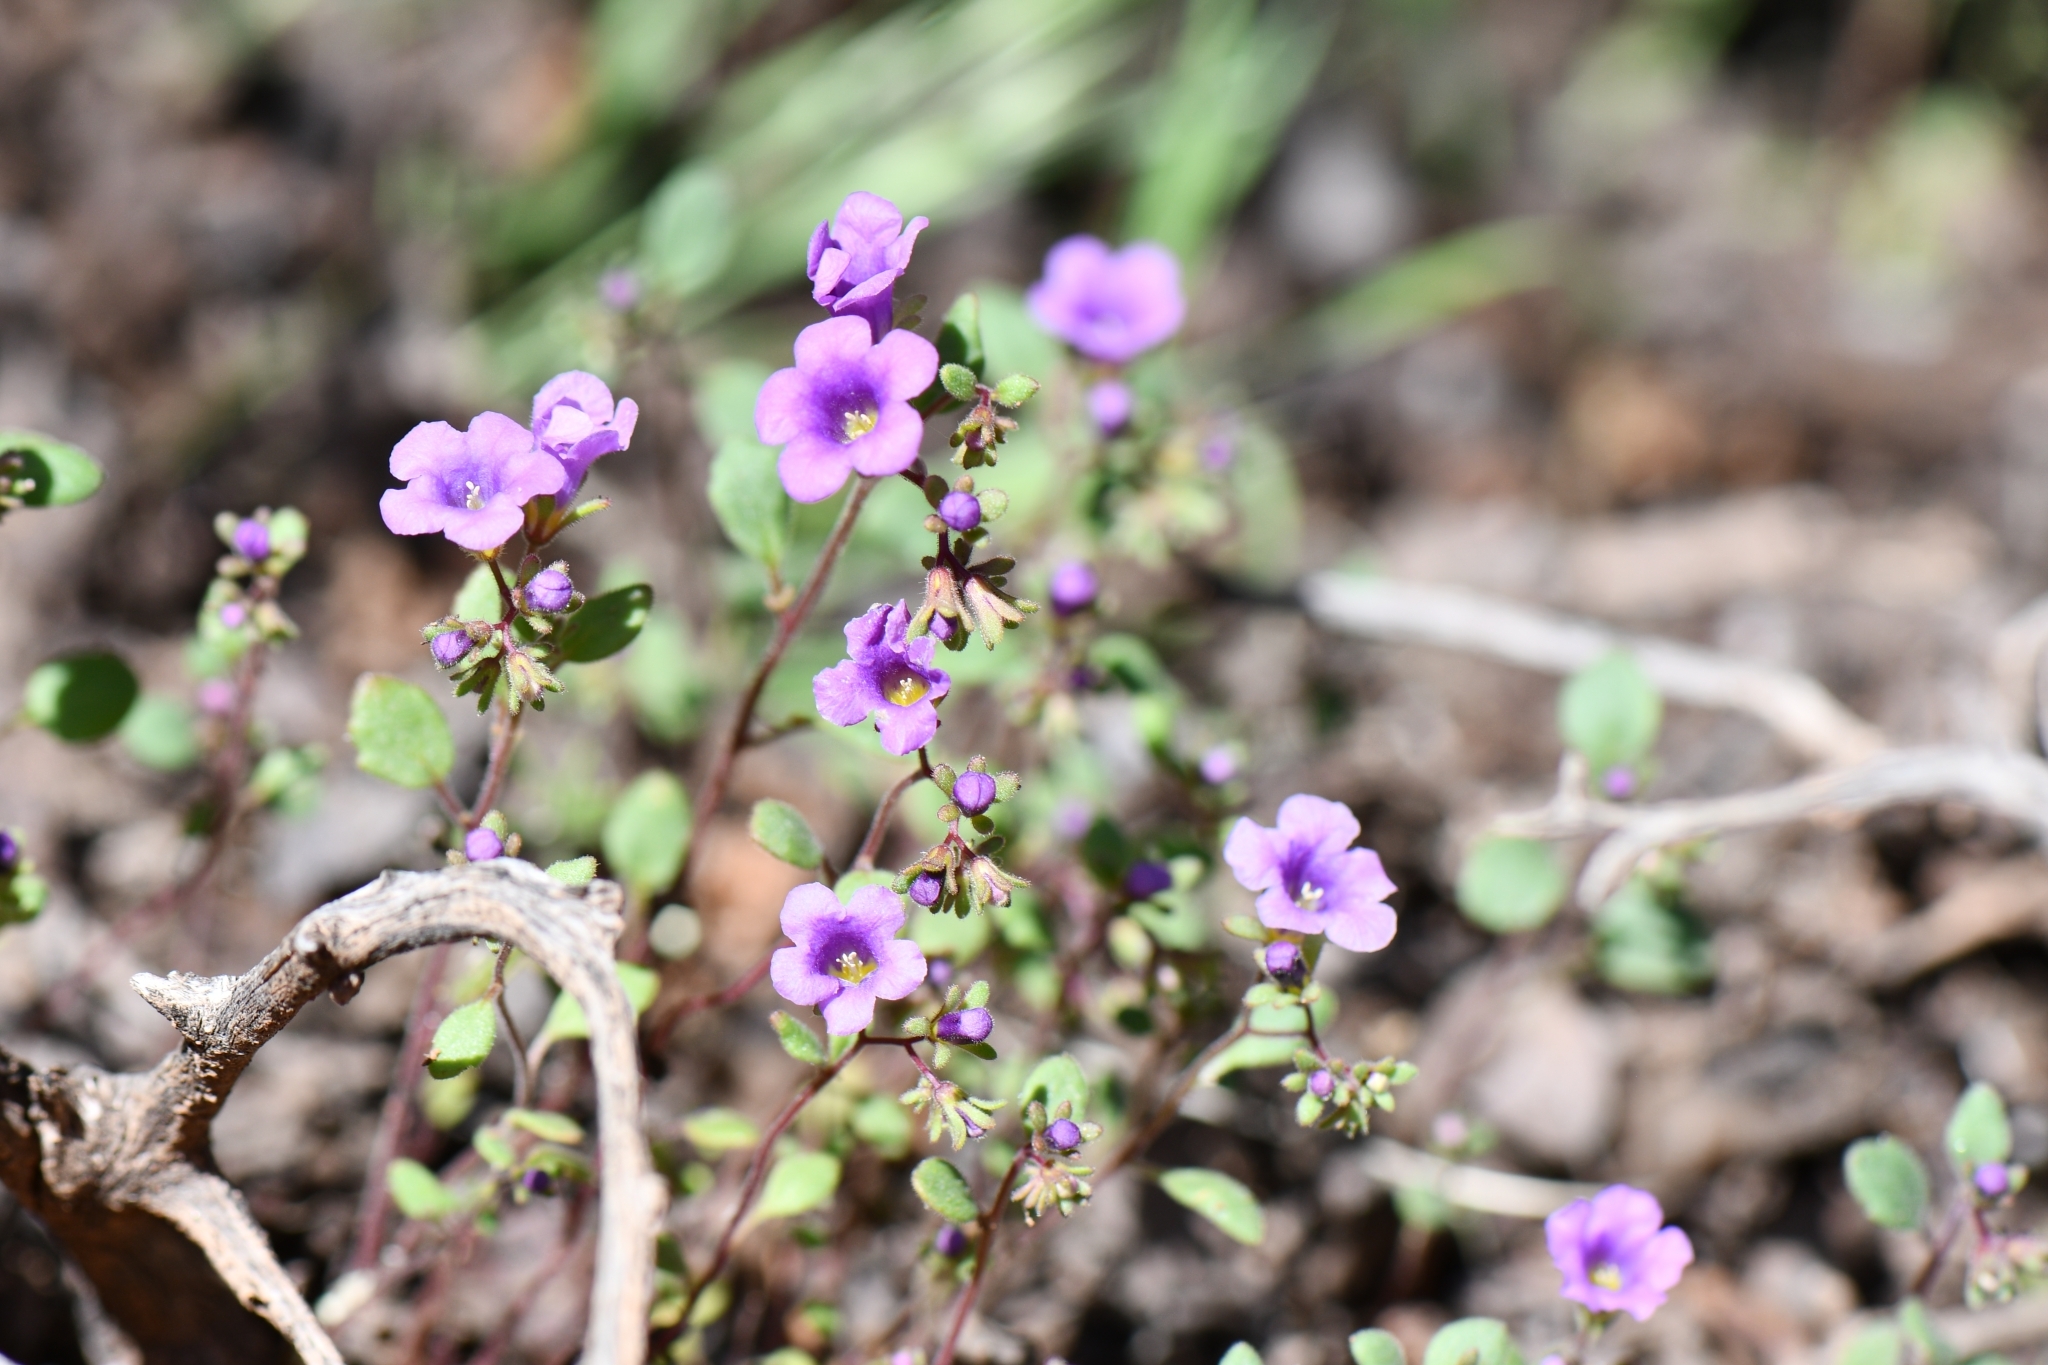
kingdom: Plantae
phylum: Tracheophyta
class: Magnoliopsida
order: Boraginales
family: Hydrophyllaceae
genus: Phacelia
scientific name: Phacelia pulchella
